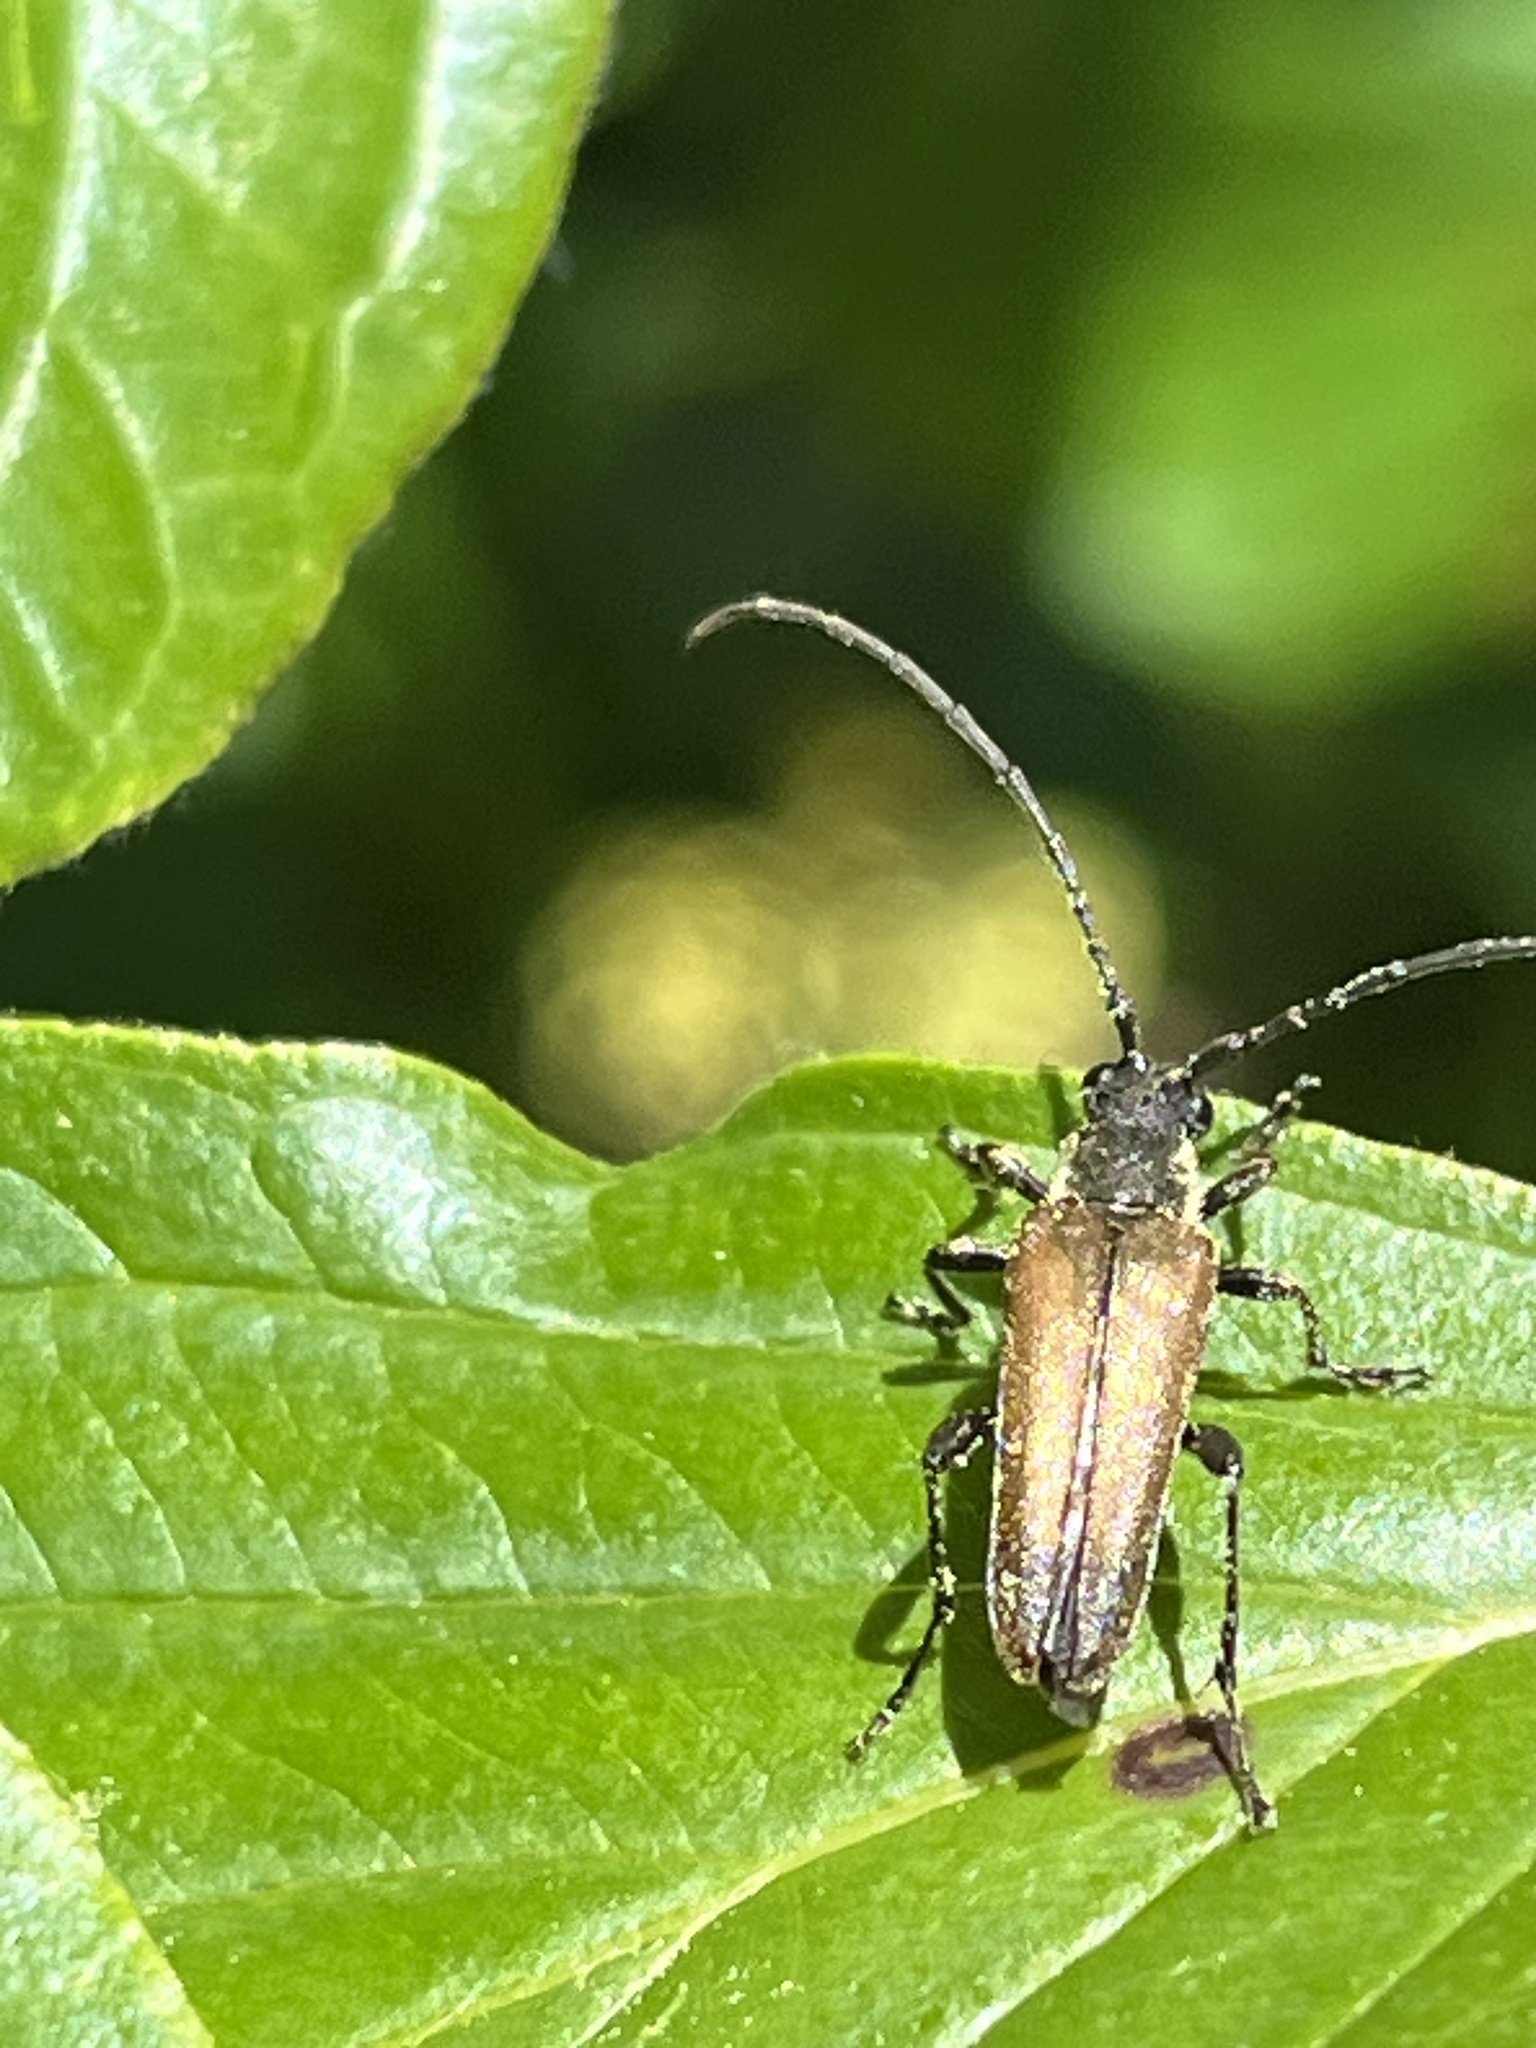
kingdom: Animalia
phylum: Arthropoda
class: Insecta
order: Coleoptera
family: Cerambycidae
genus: Trachysida
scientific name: Trachysida mutabilis
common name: Changeable flower longhorn
